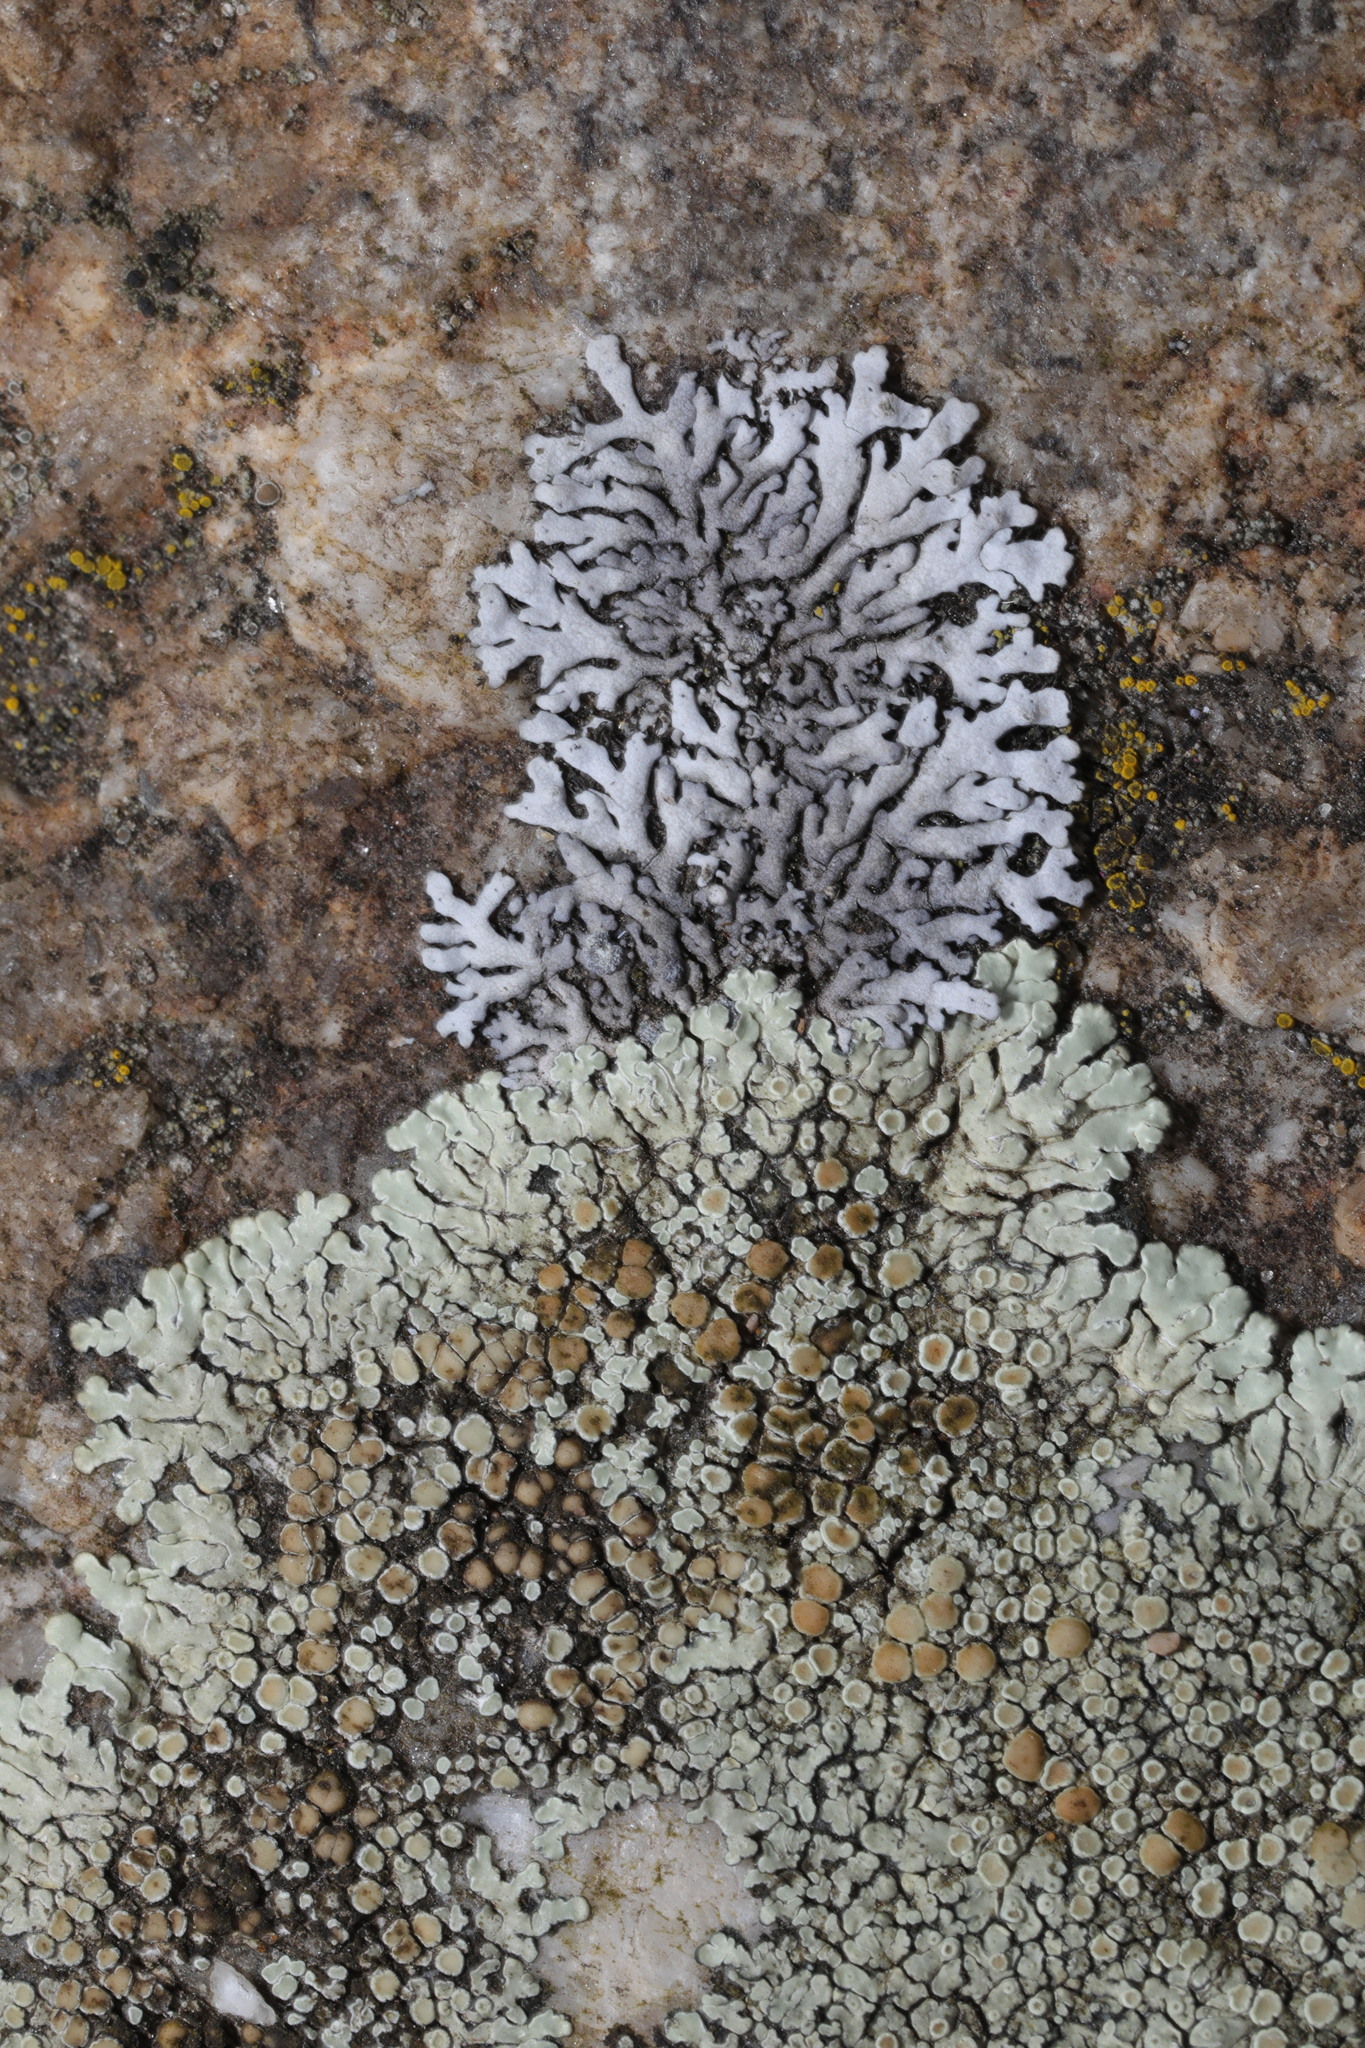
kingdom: Fungi
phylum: Ascomycota
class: Lecanoromycetes
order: Caliciales
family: Physciaceae
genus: Physcia
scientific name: Physcia caesia
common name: Blue-gray rosette lichen
